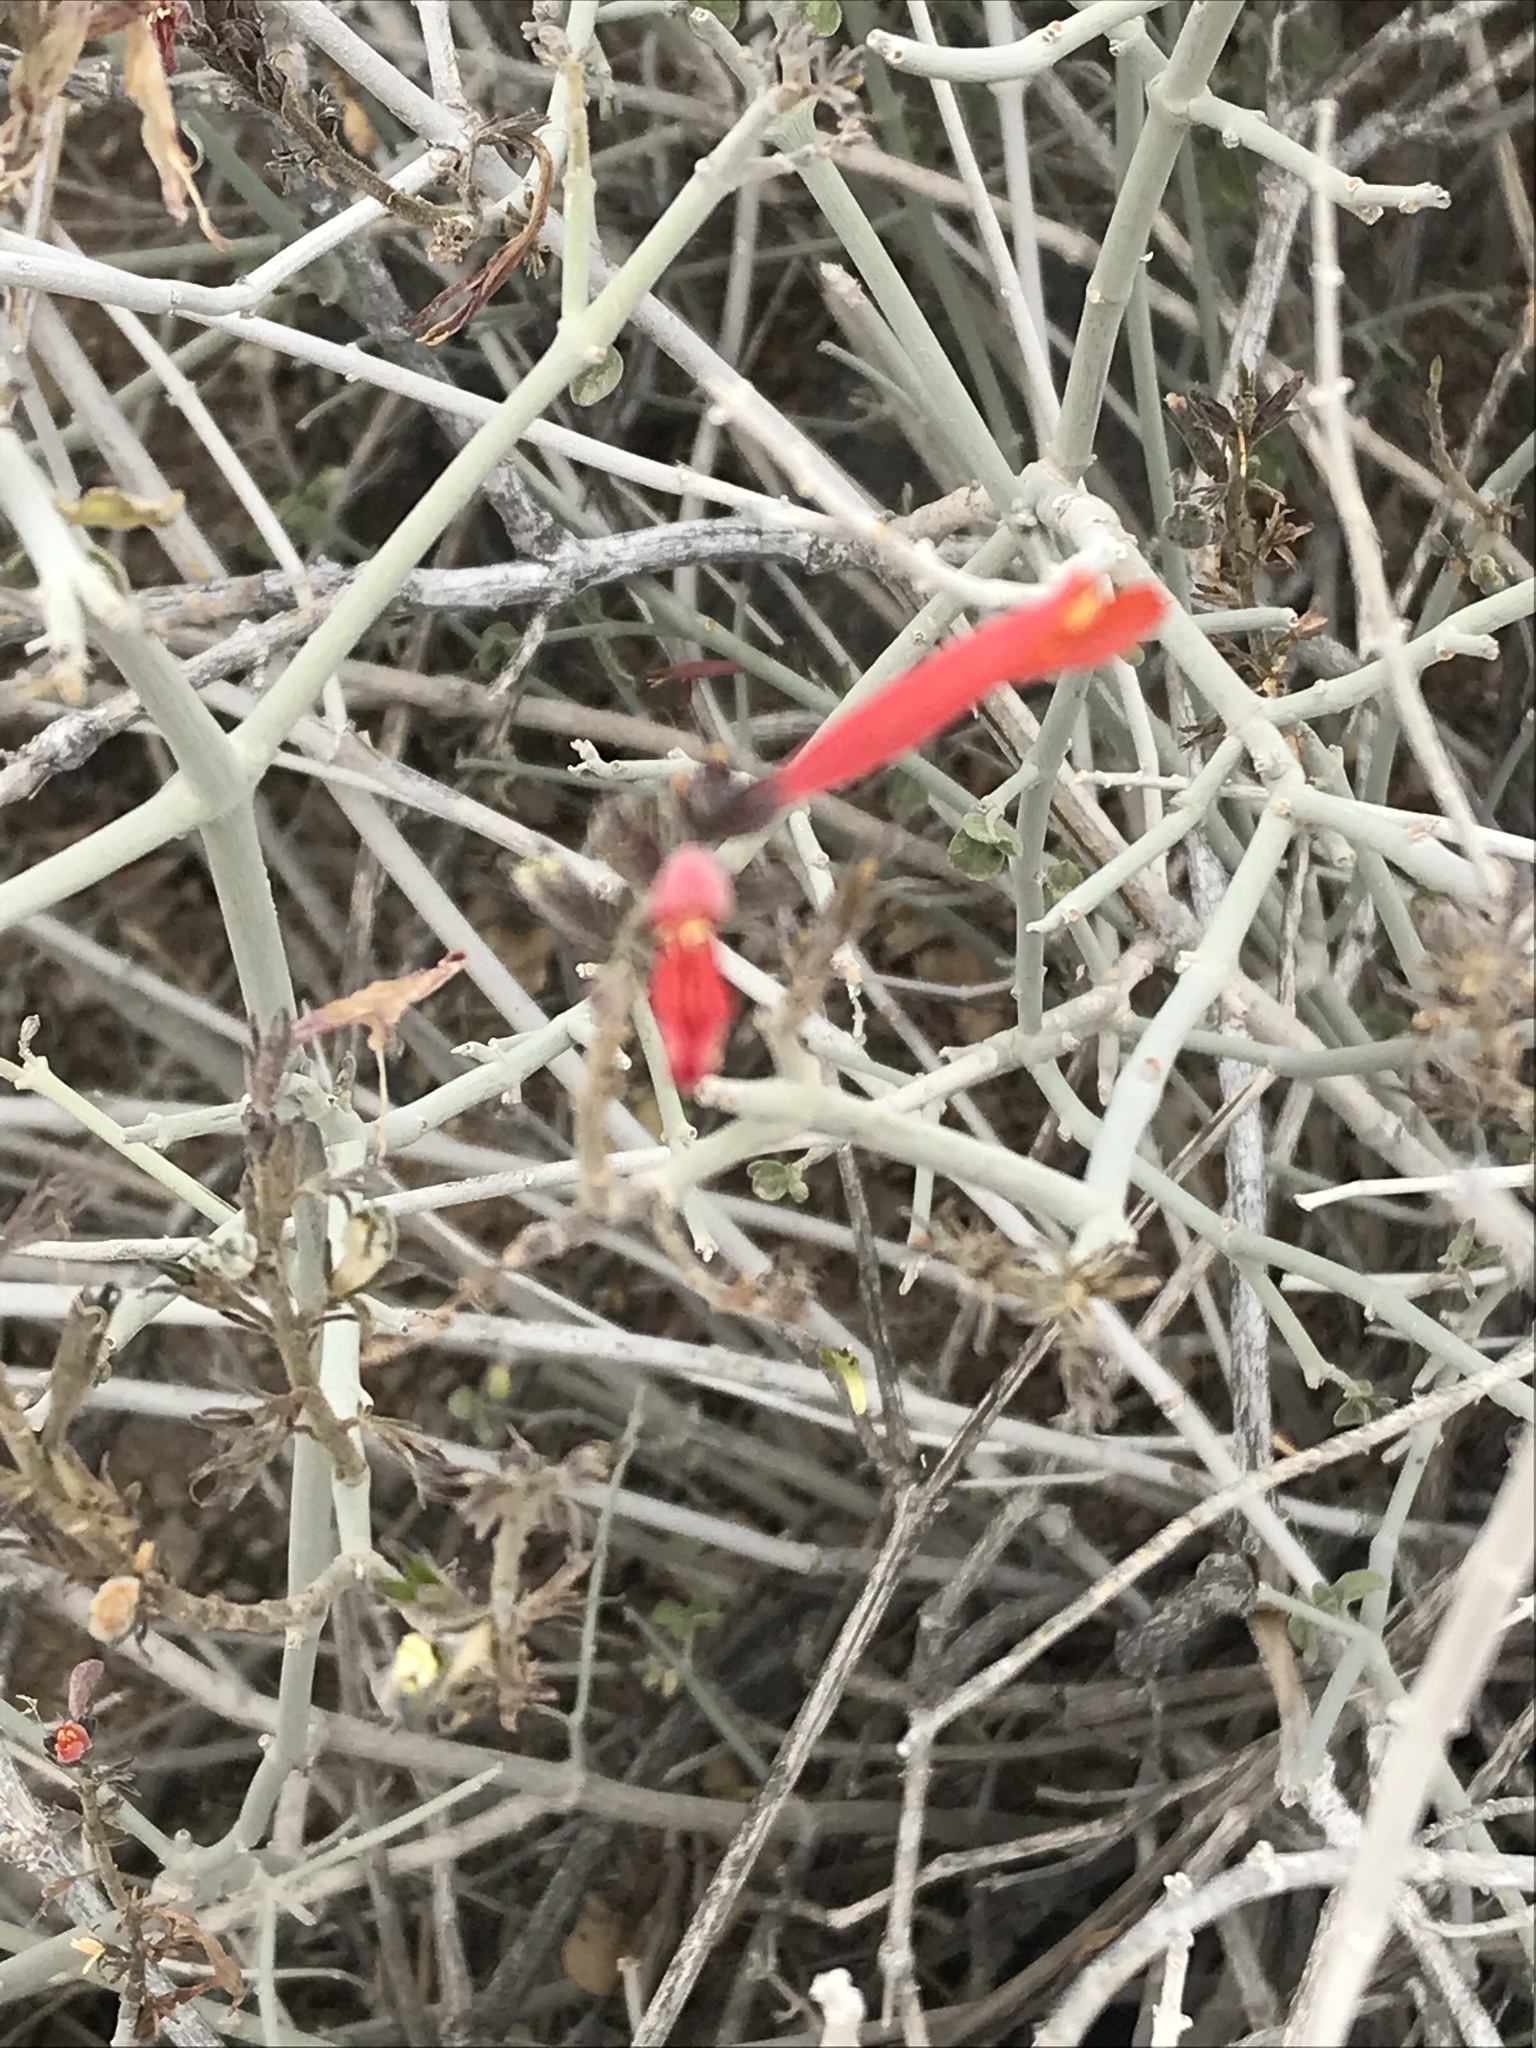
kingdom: Plantae
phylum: Tracheophyta
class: Magnoliopsida
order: Lamiales
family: Acanthaceae
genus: Justicia
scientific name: Justicia californica
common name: Chuparosa-honeysuckle
